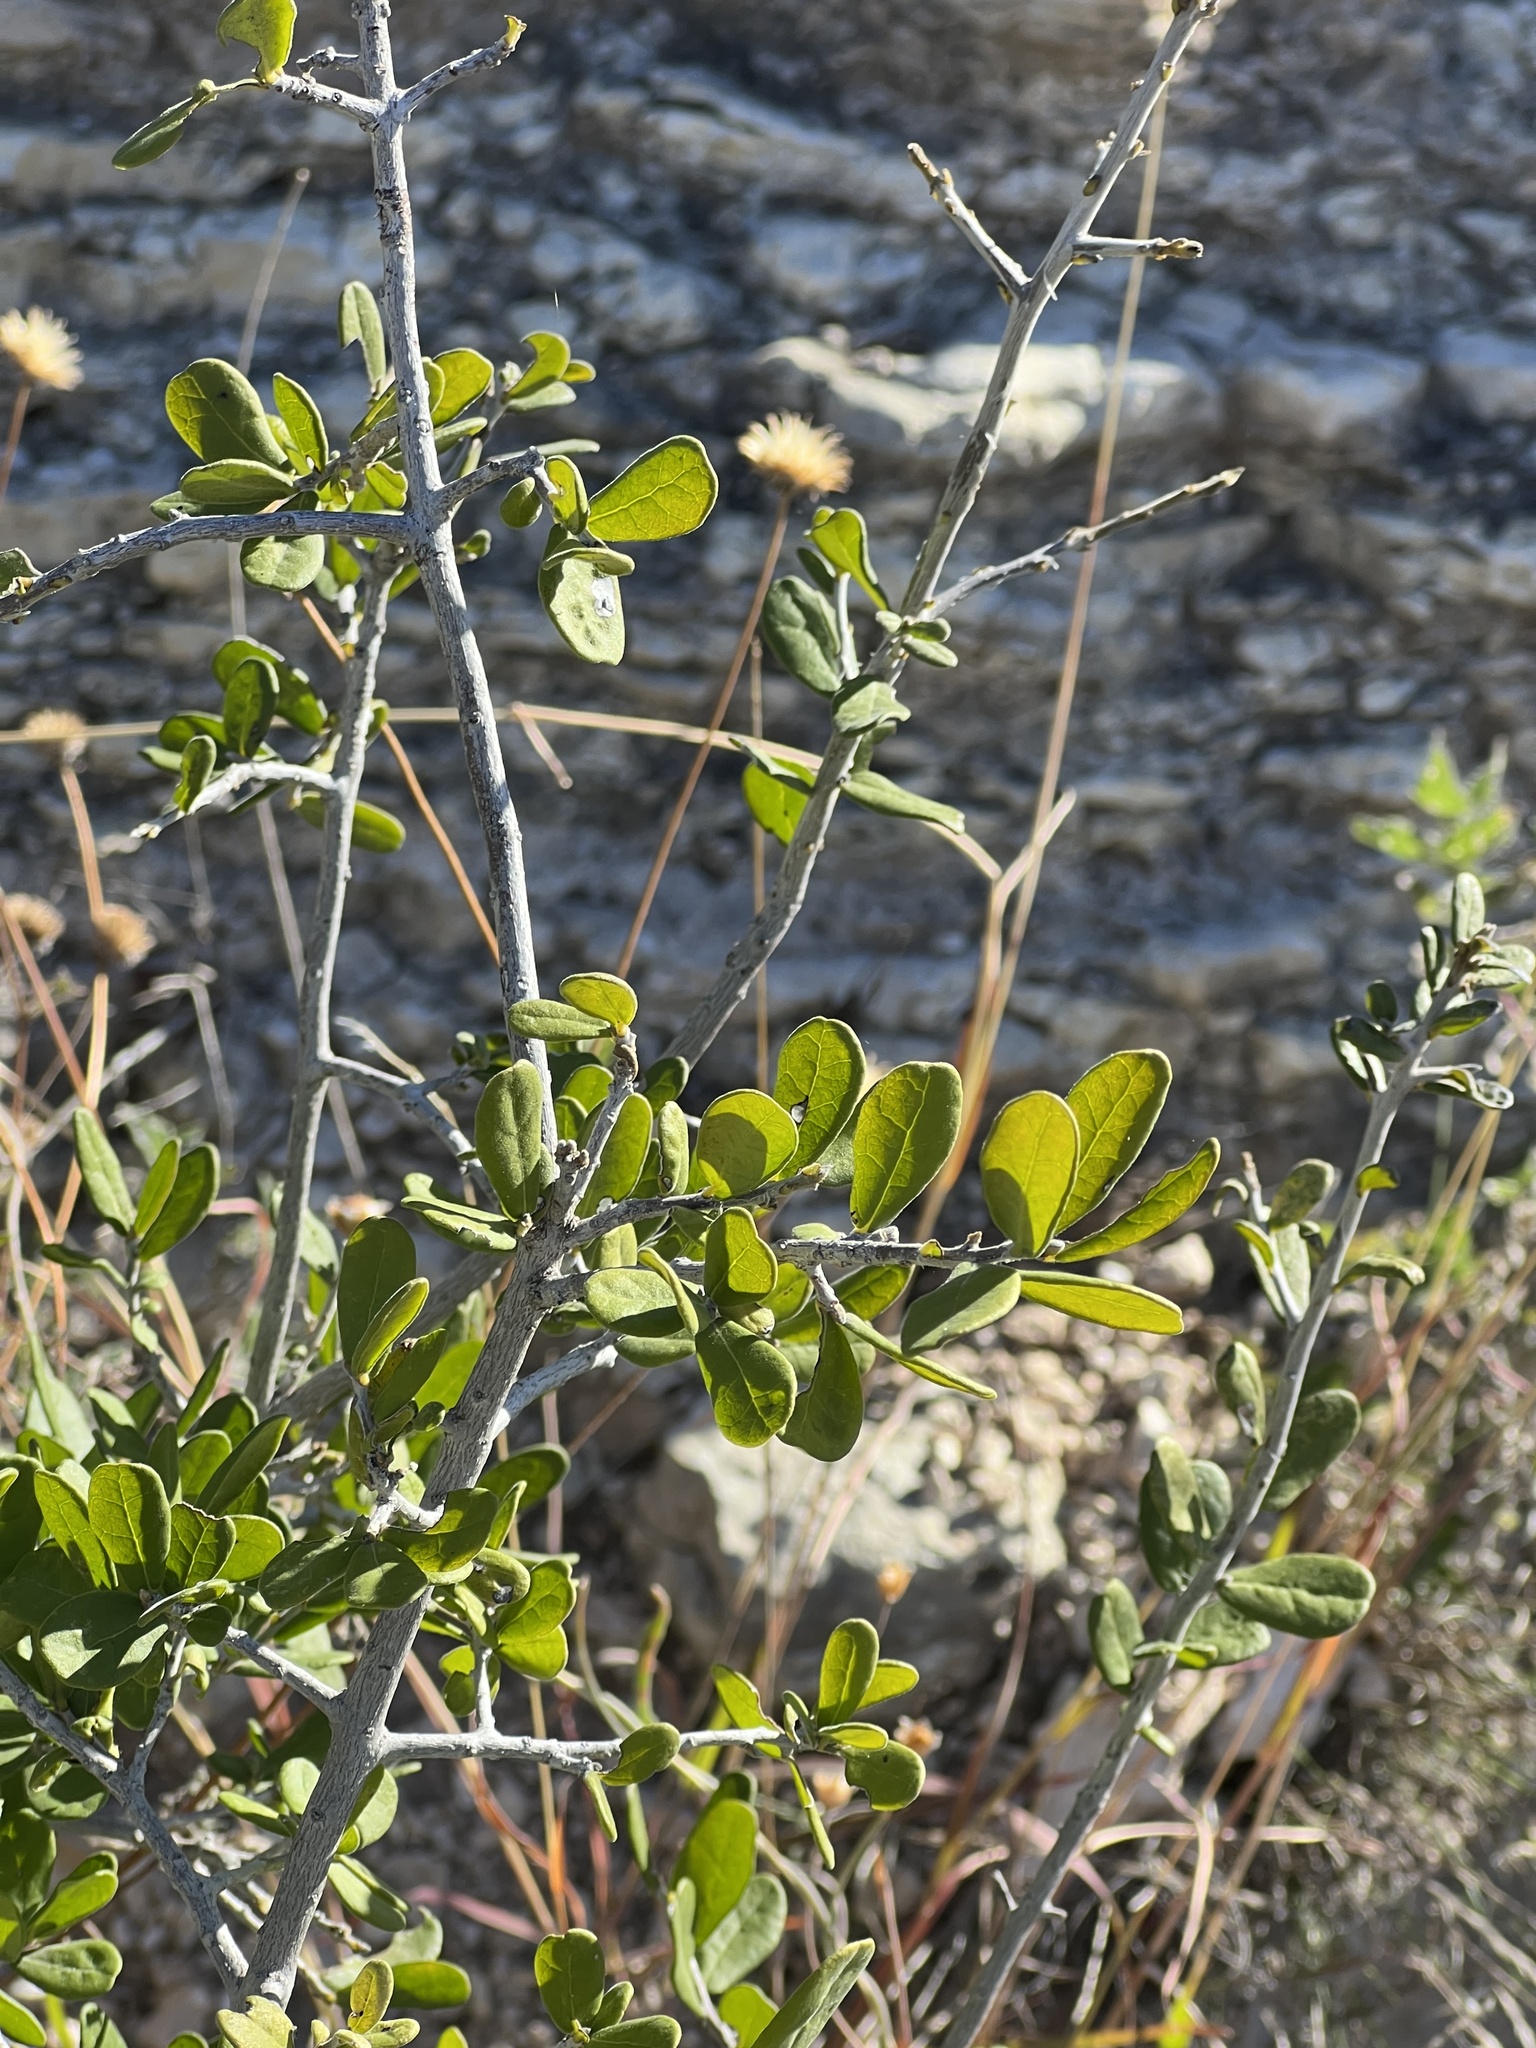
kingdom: Plantae
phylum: Tracheophyta
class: Magnoliopsida
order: Ericales
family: Ebenaceae
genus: Diospyros
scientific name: Diospyros texana
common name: Texas persimmon
